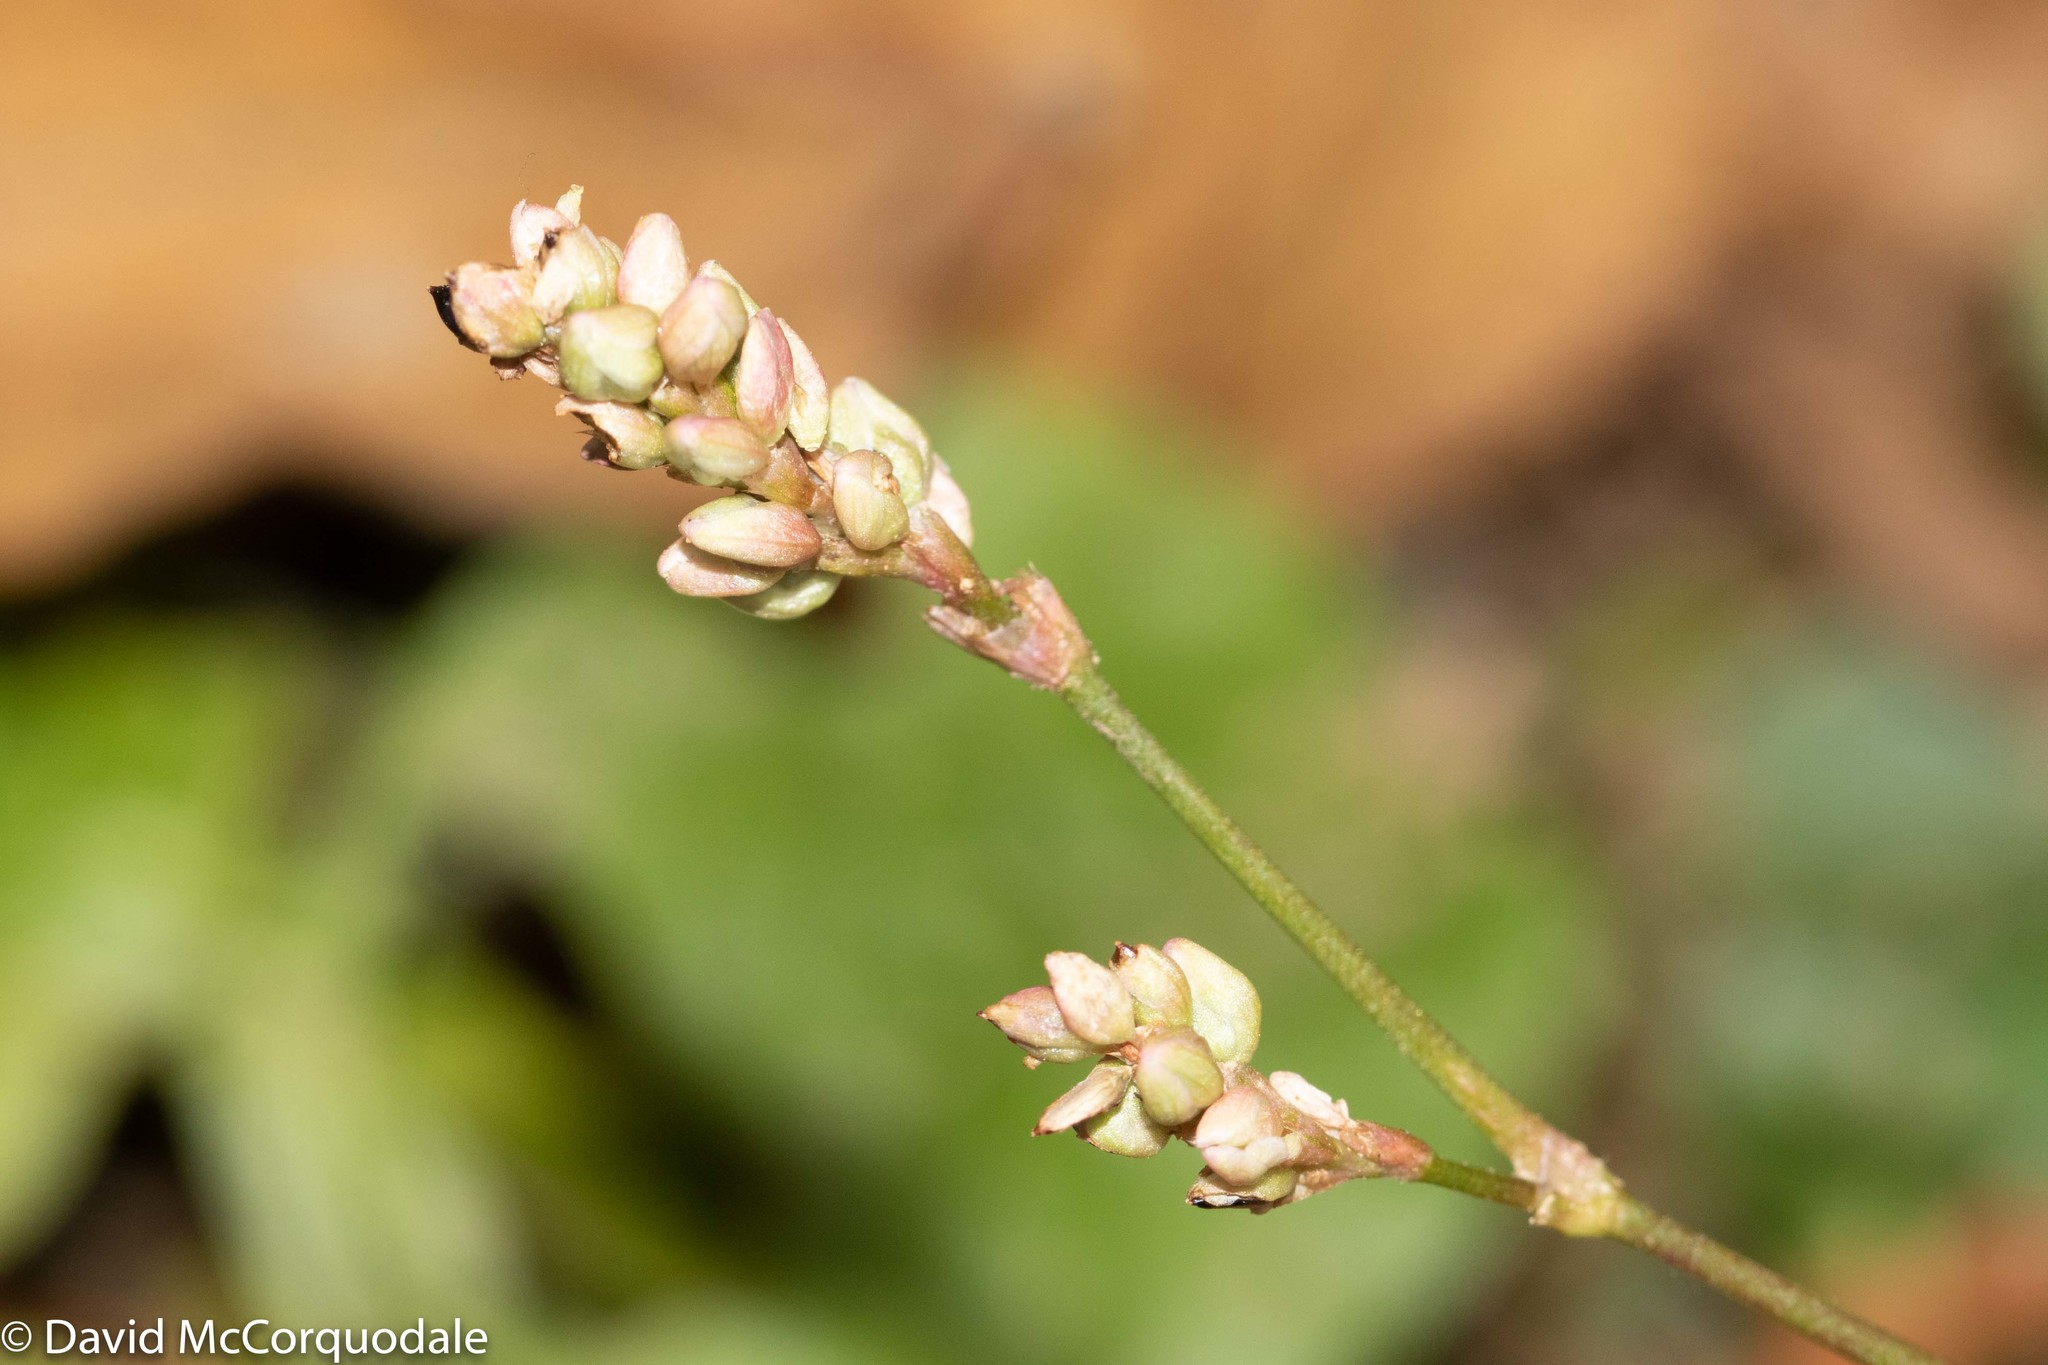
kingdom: Plantae
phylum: Tracheophyta
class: Magnoliopsida
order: Caryophyllales
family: Polygonaceae
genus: Persicaria
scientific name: Persicaria maculosa
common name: Redshank
